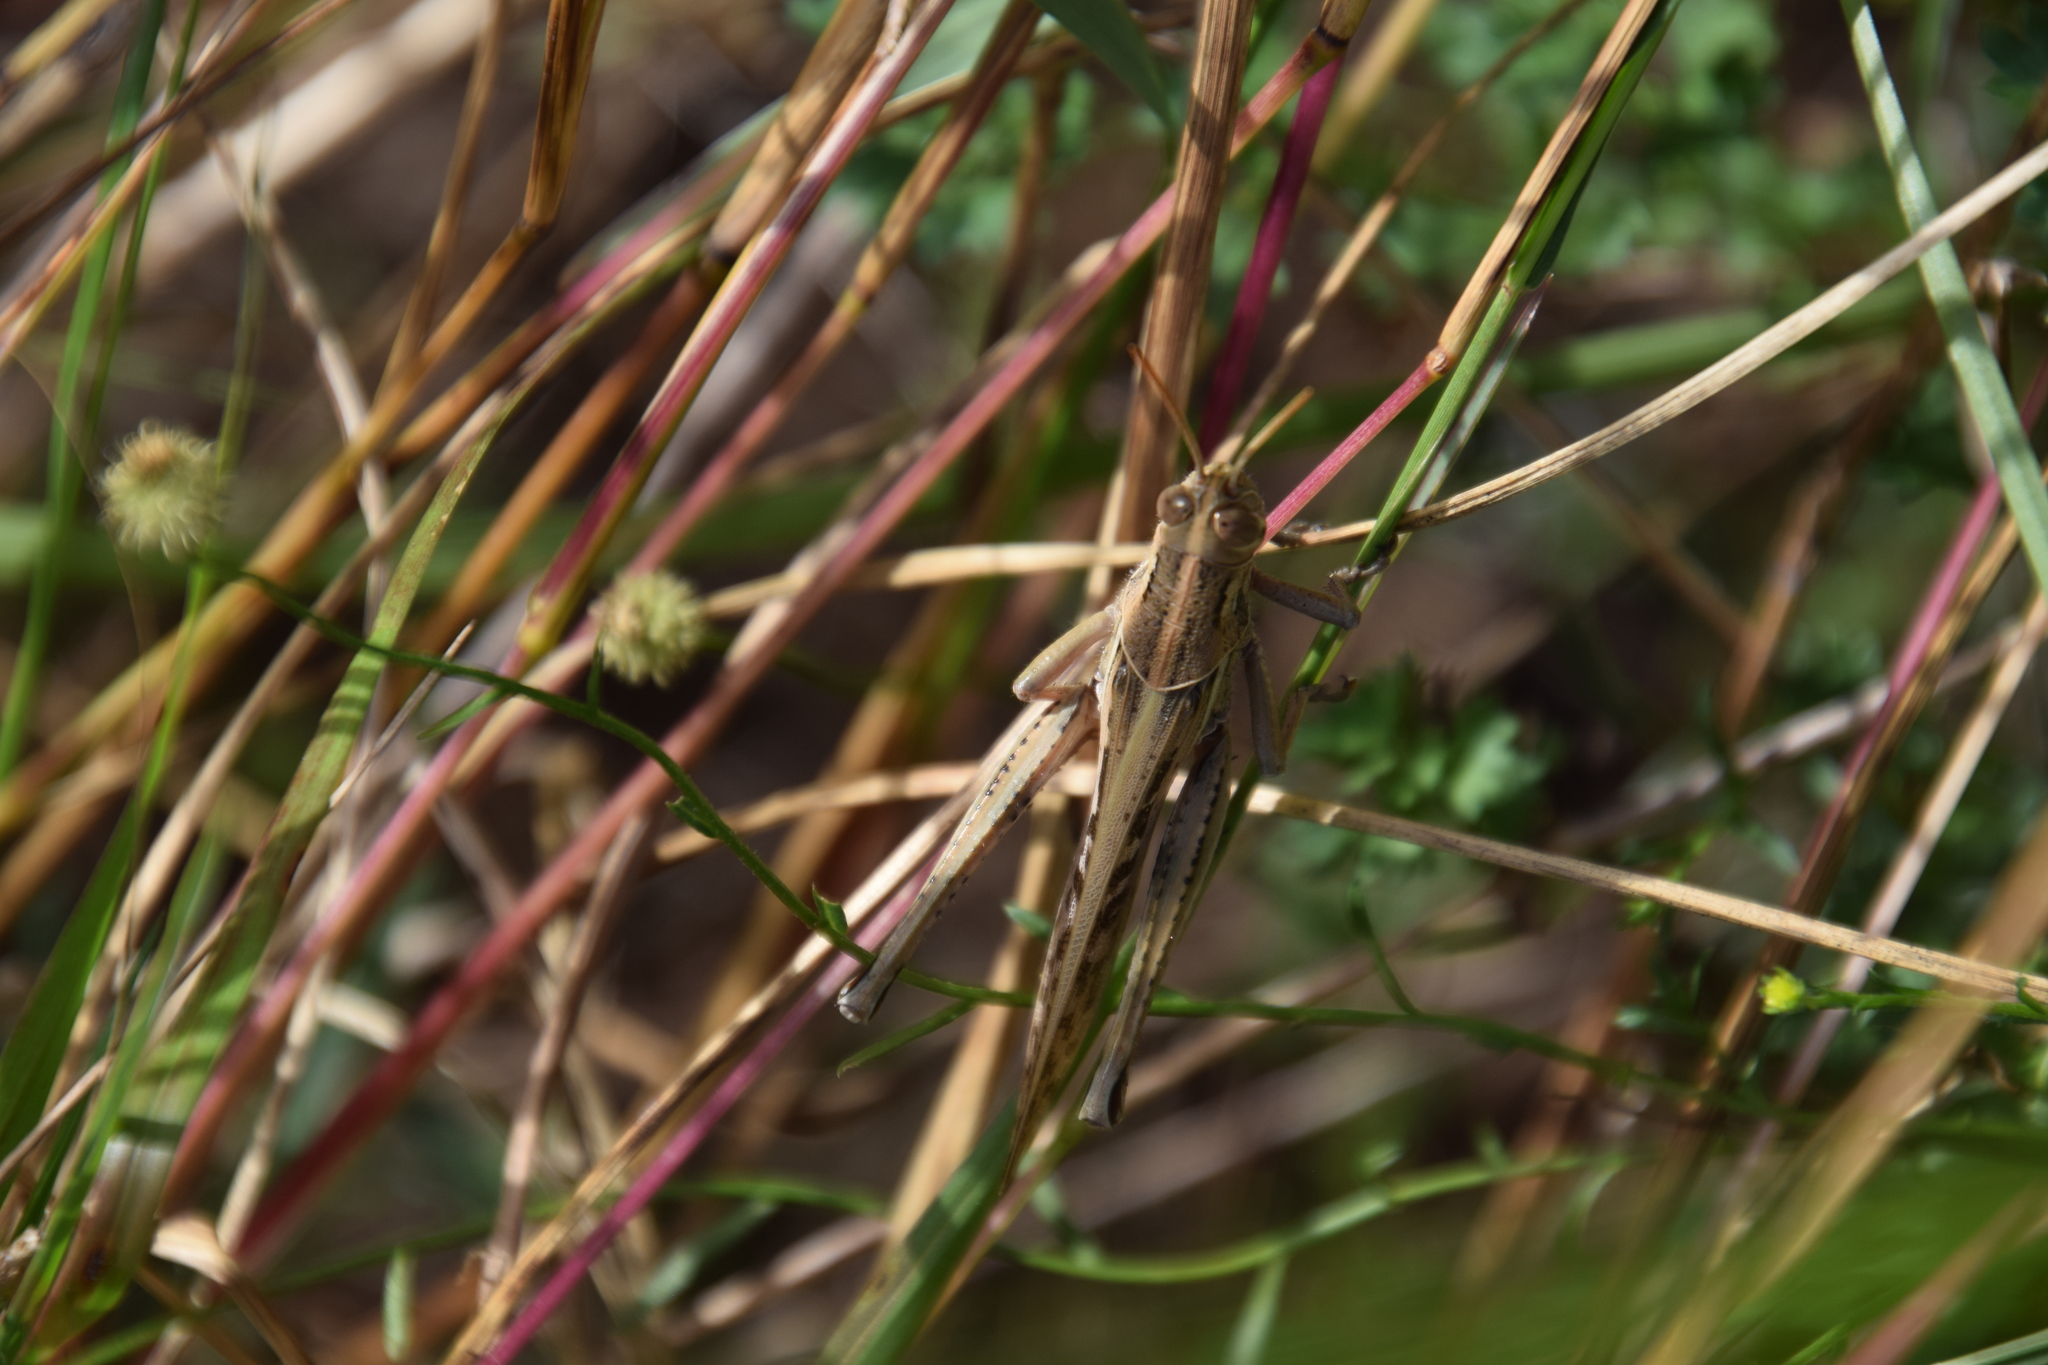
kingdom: Animalia
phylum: Arthropoda
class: Insecta
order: Orthoptera
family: Acrididae
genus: Austracris
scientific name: Austracris proxima
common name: Confusing spur-throated locust
